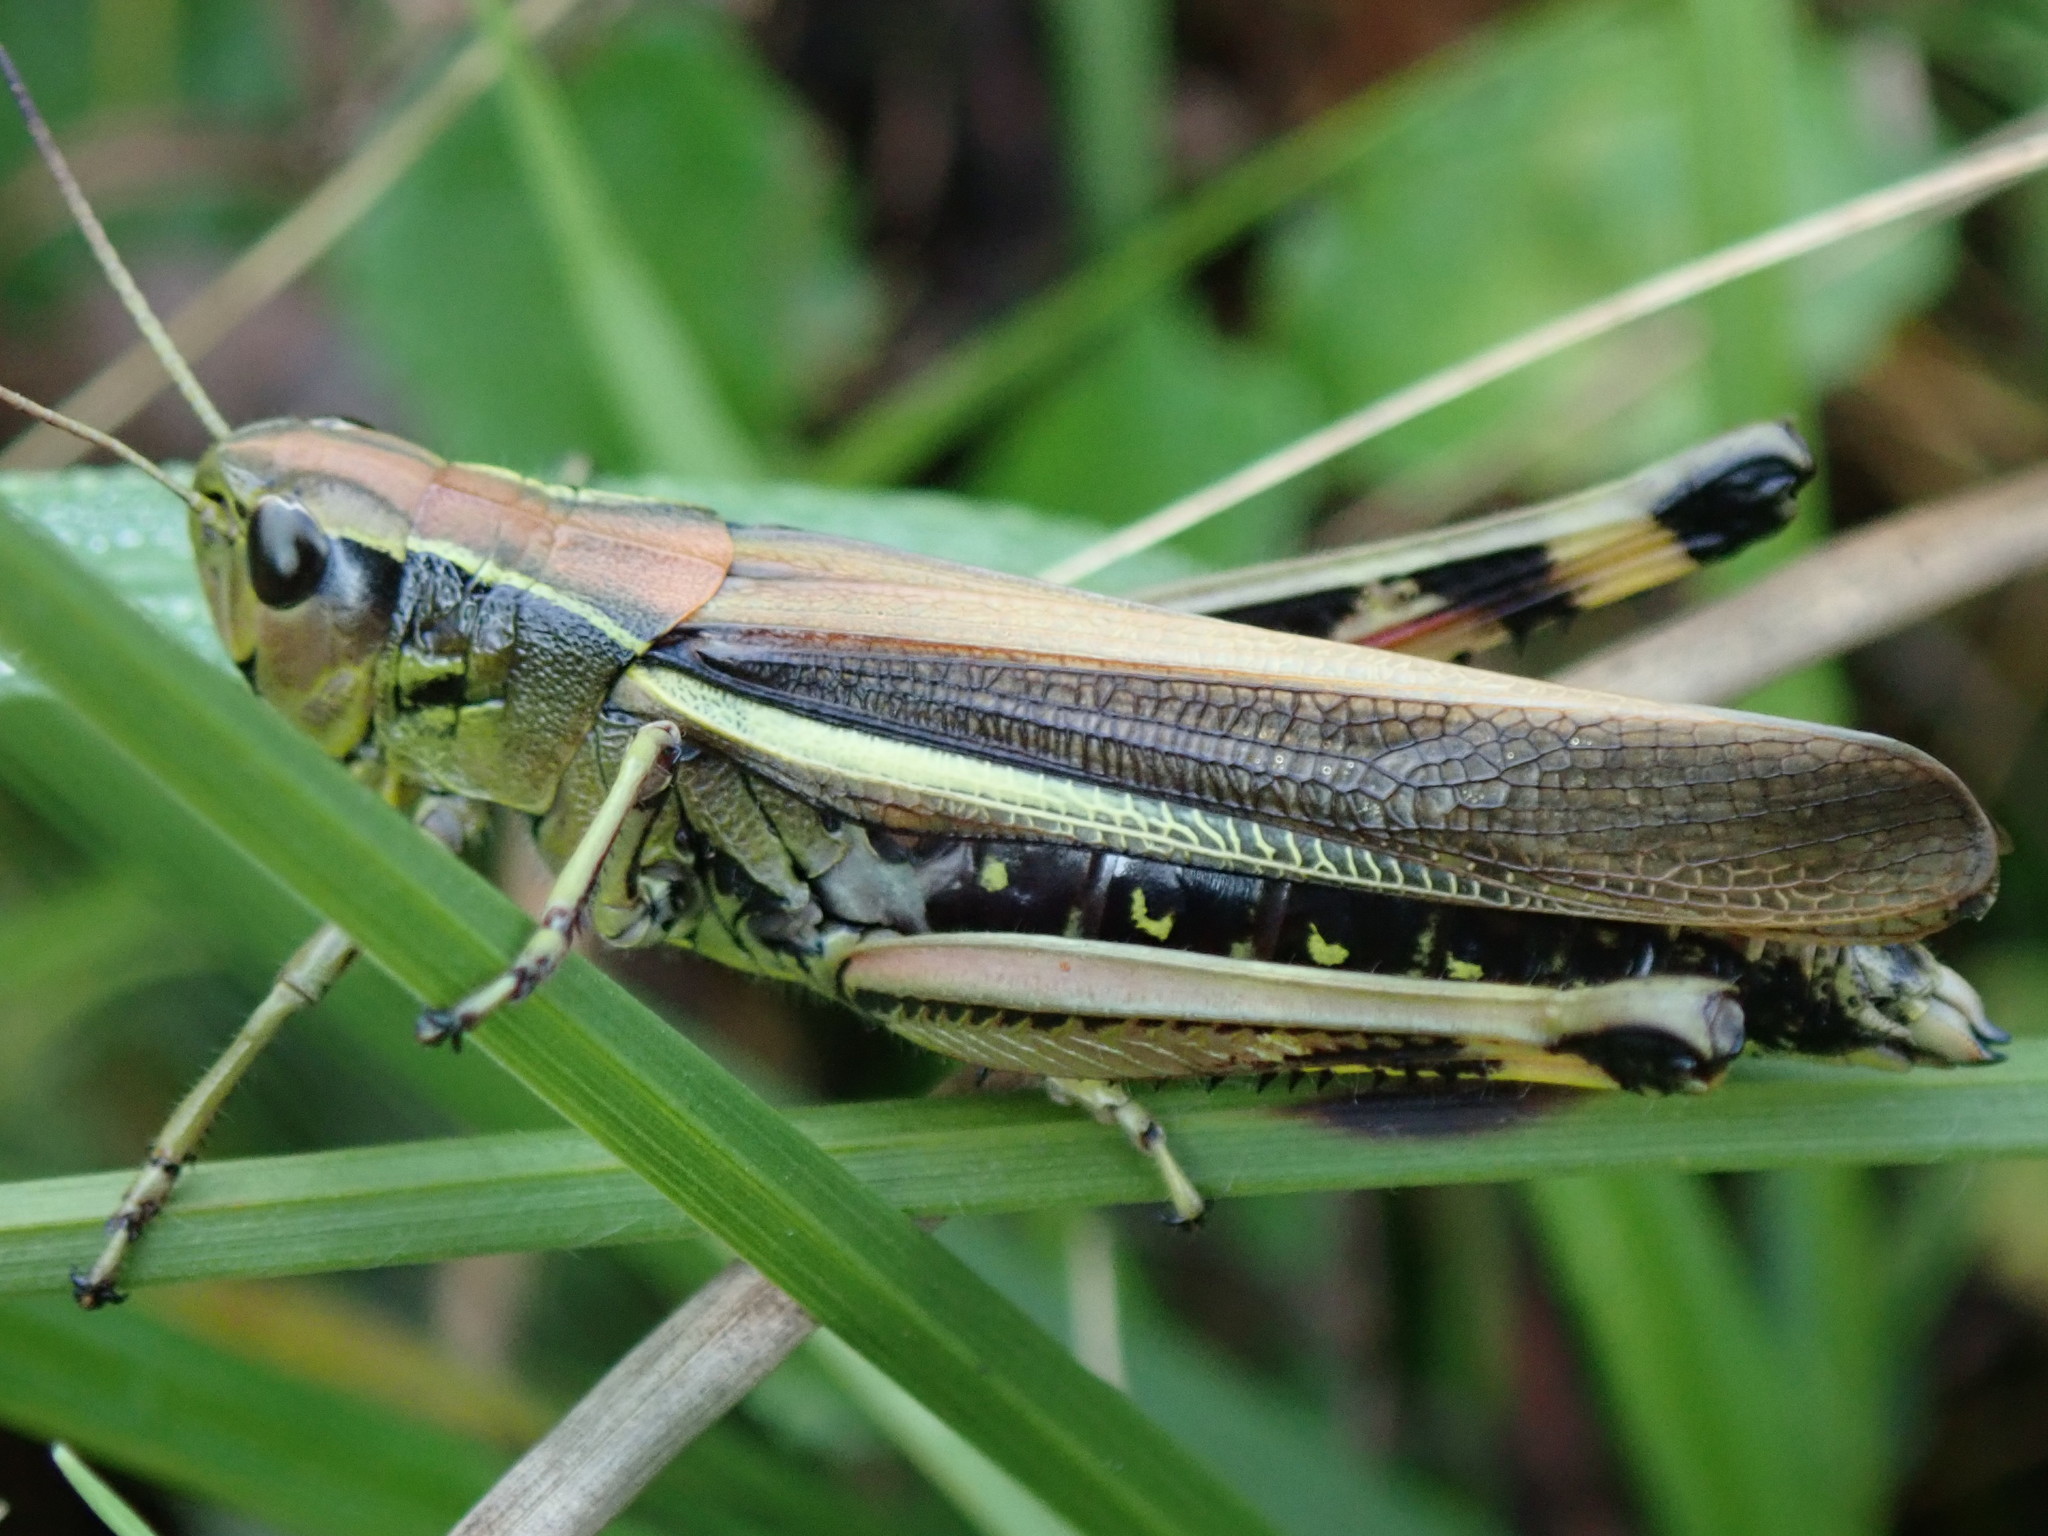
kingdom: Animalia
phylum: Arthropoda
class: Insecta
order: Orthoptera
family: Acrididae
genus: Stethophyma
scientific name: Stethophyma grossum
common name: Large marsh grasshopper
